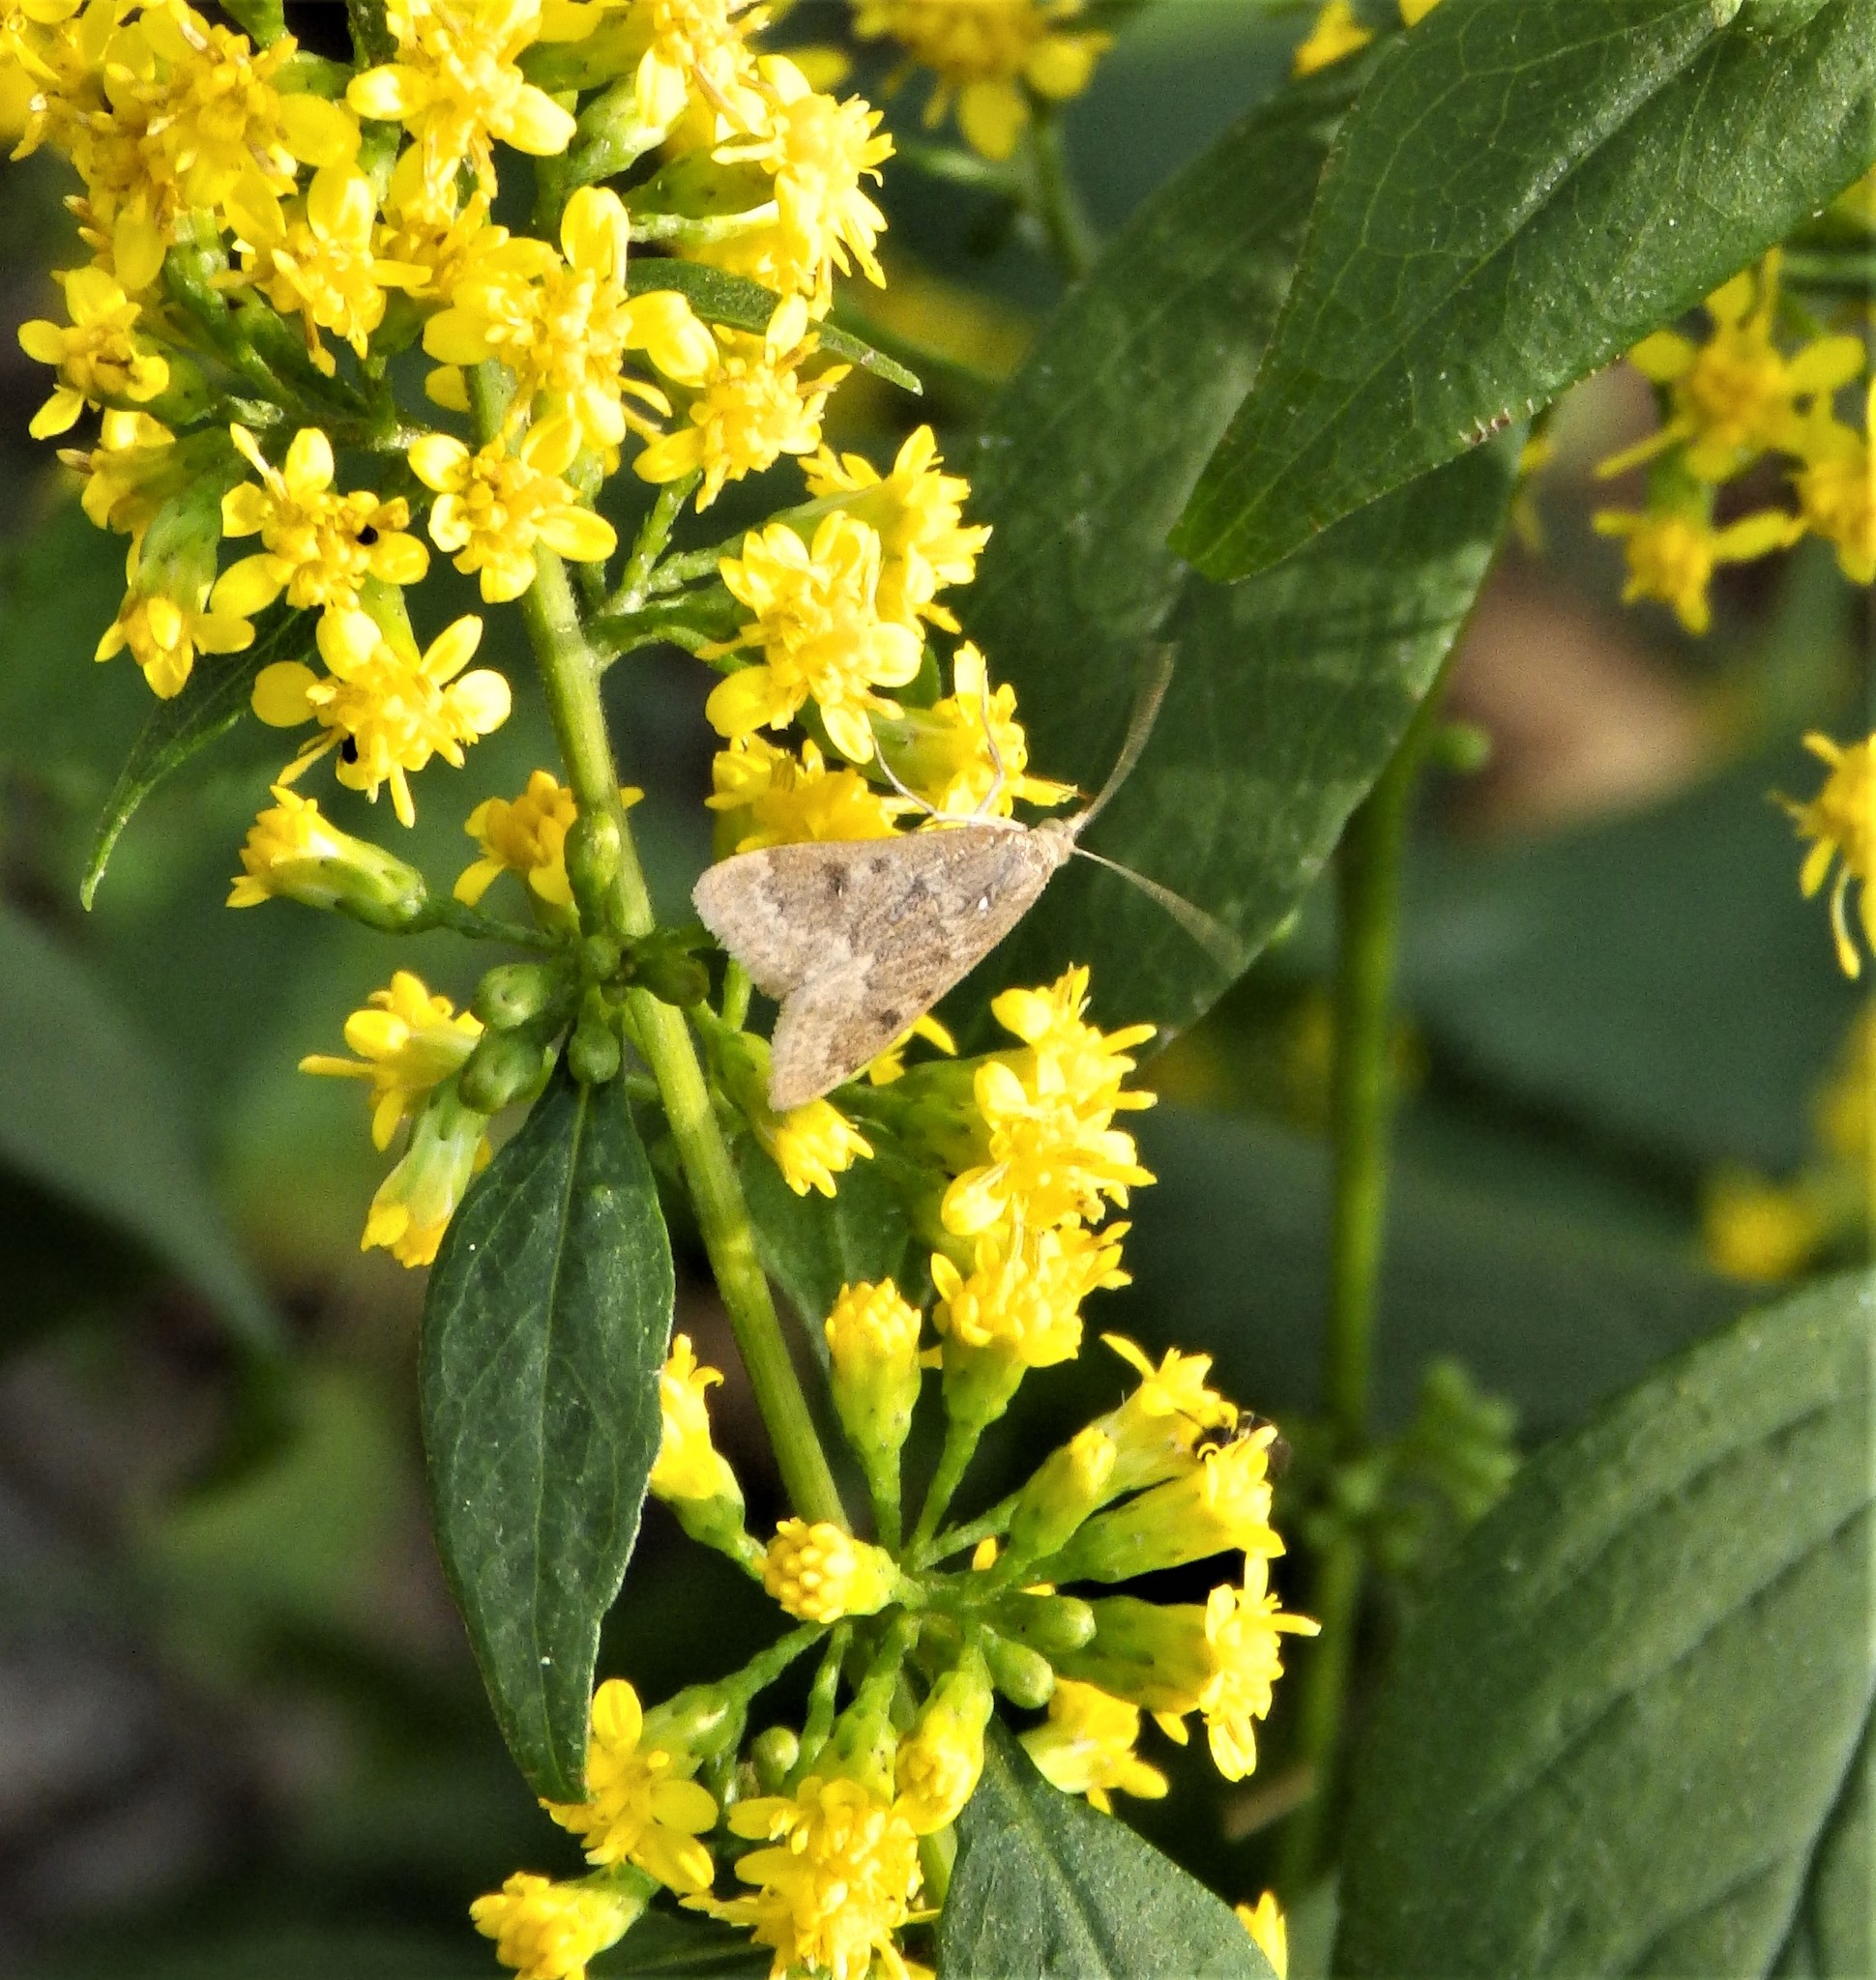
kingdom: Animalia
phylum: Arthropoda
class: Insecta
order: Lepidoptera
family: Crambidae
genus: Achyra
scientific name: Achyra rantalis
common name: Garden webworm
